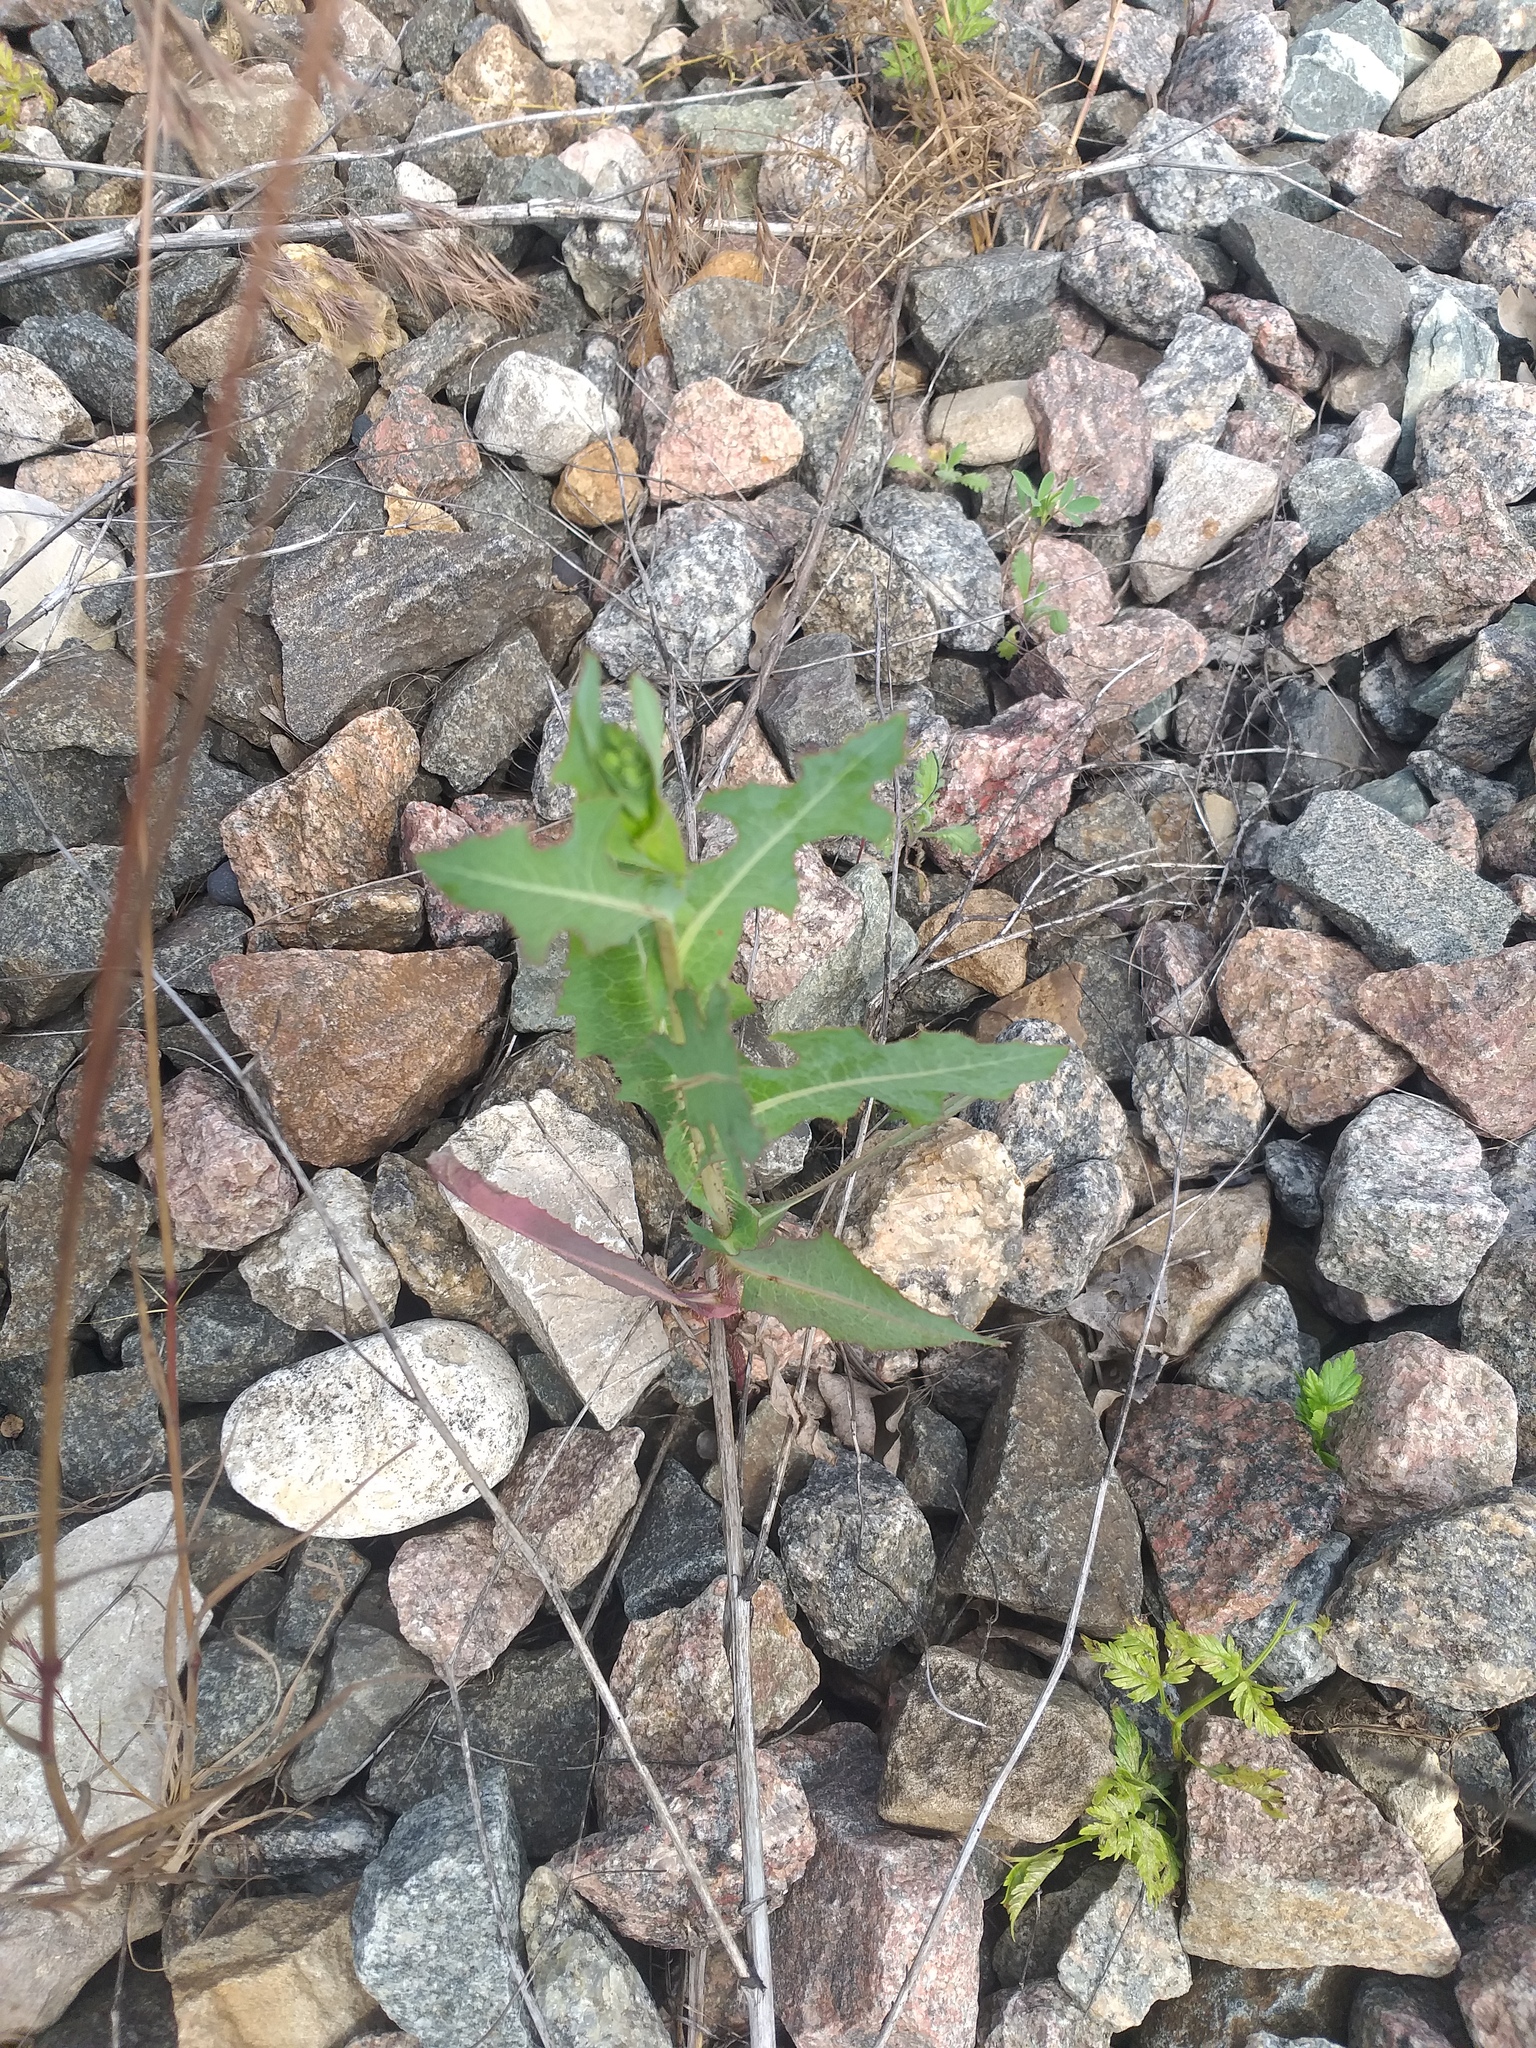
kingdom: Plantae
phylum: Tracheophyta
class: Magnoliopsida
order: Asterales
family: Asteraceae
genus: Lactuca
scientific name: Lactuca serriola
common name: Prickly lettuce
